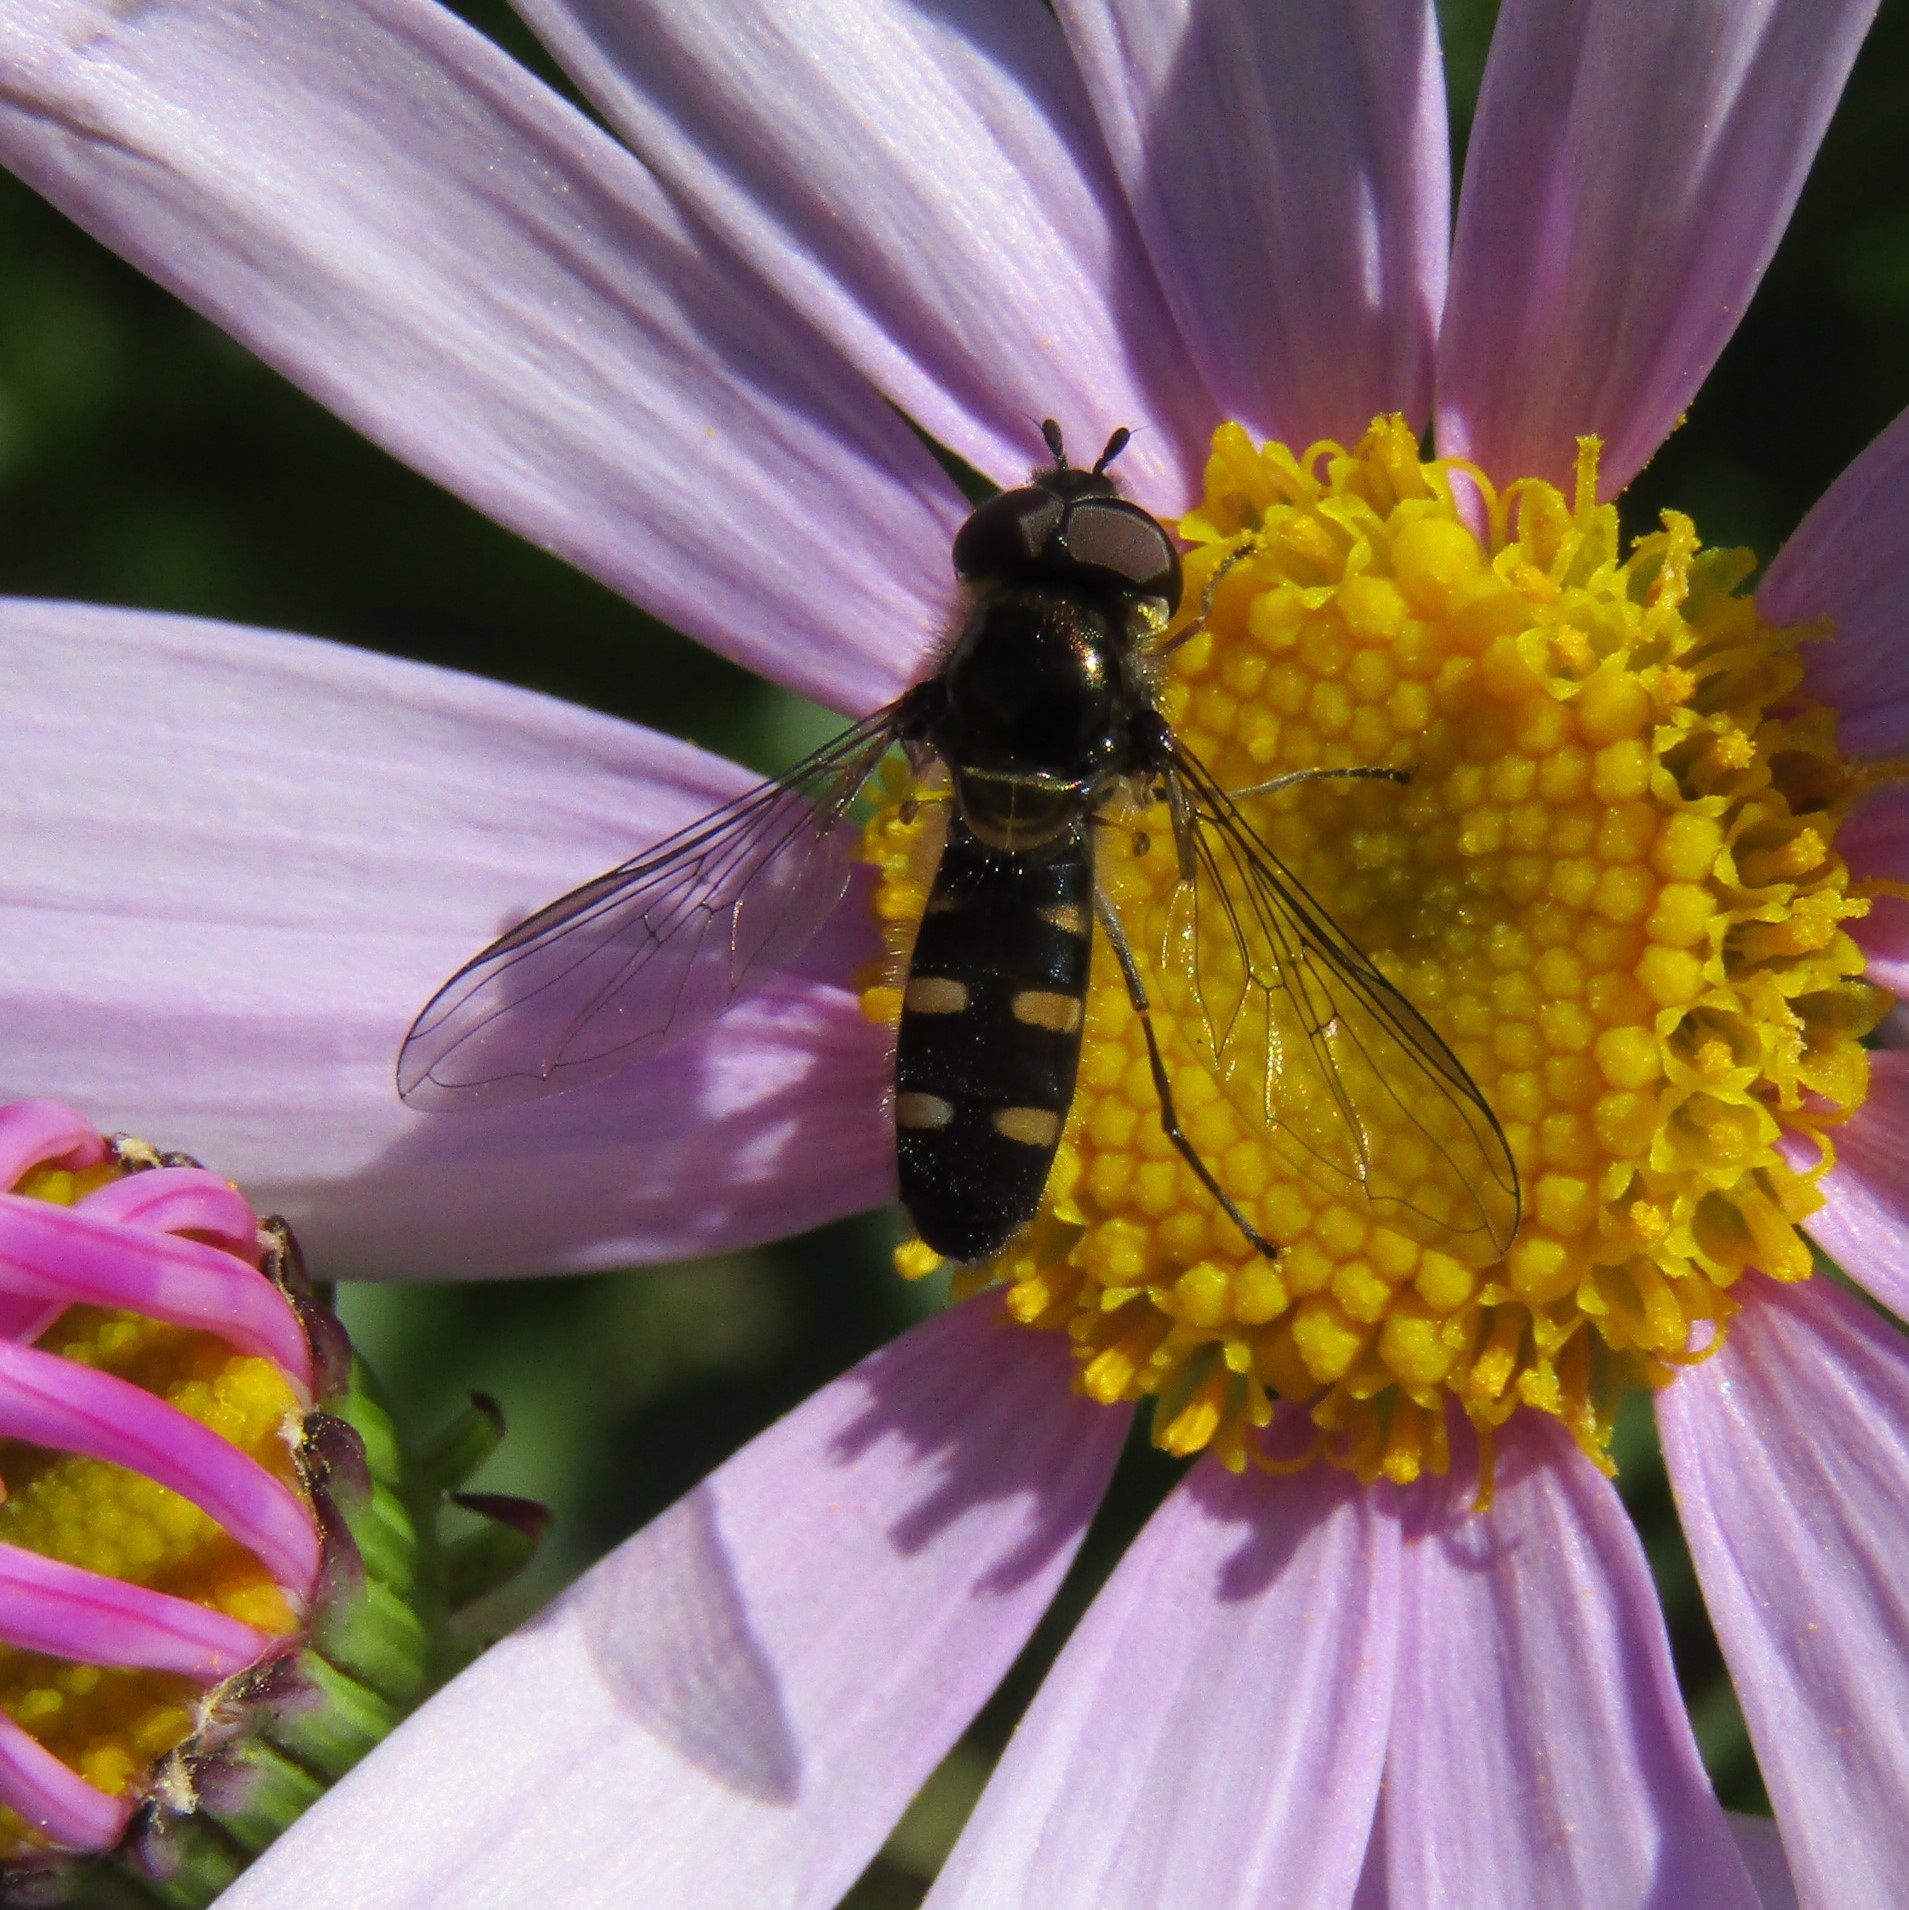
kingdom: Animalia
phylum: Arthropoda
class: Insecta
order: Diptera
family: Syrphidae
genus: Melangyna
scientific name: Melangyna novaezelandiae
